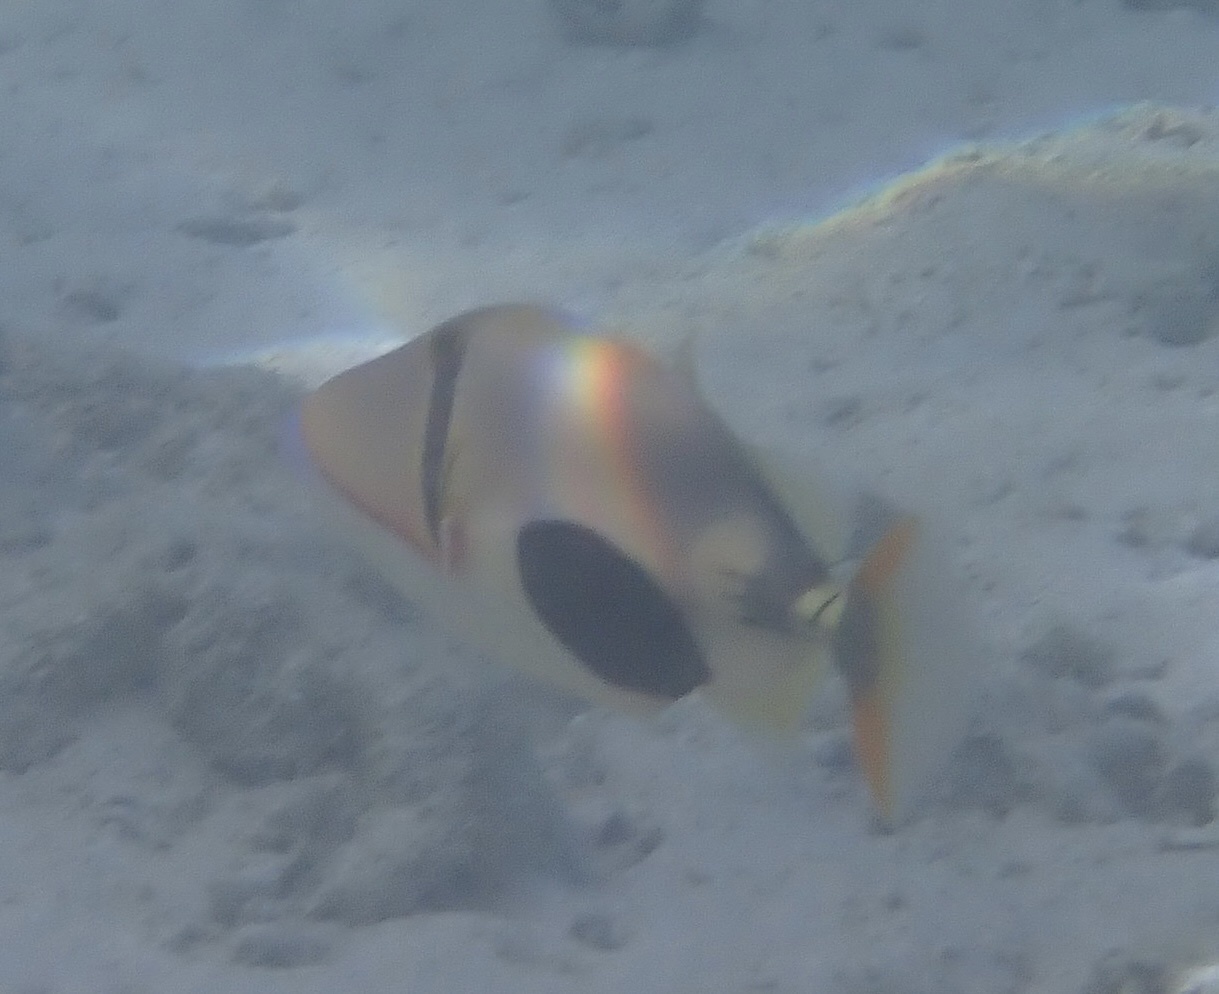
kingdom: Animalia
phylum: Chordata
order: Tetraodontiformes
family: Balistidae
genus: Rhinecanthus
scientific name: Rhinecanthus verrucosus
